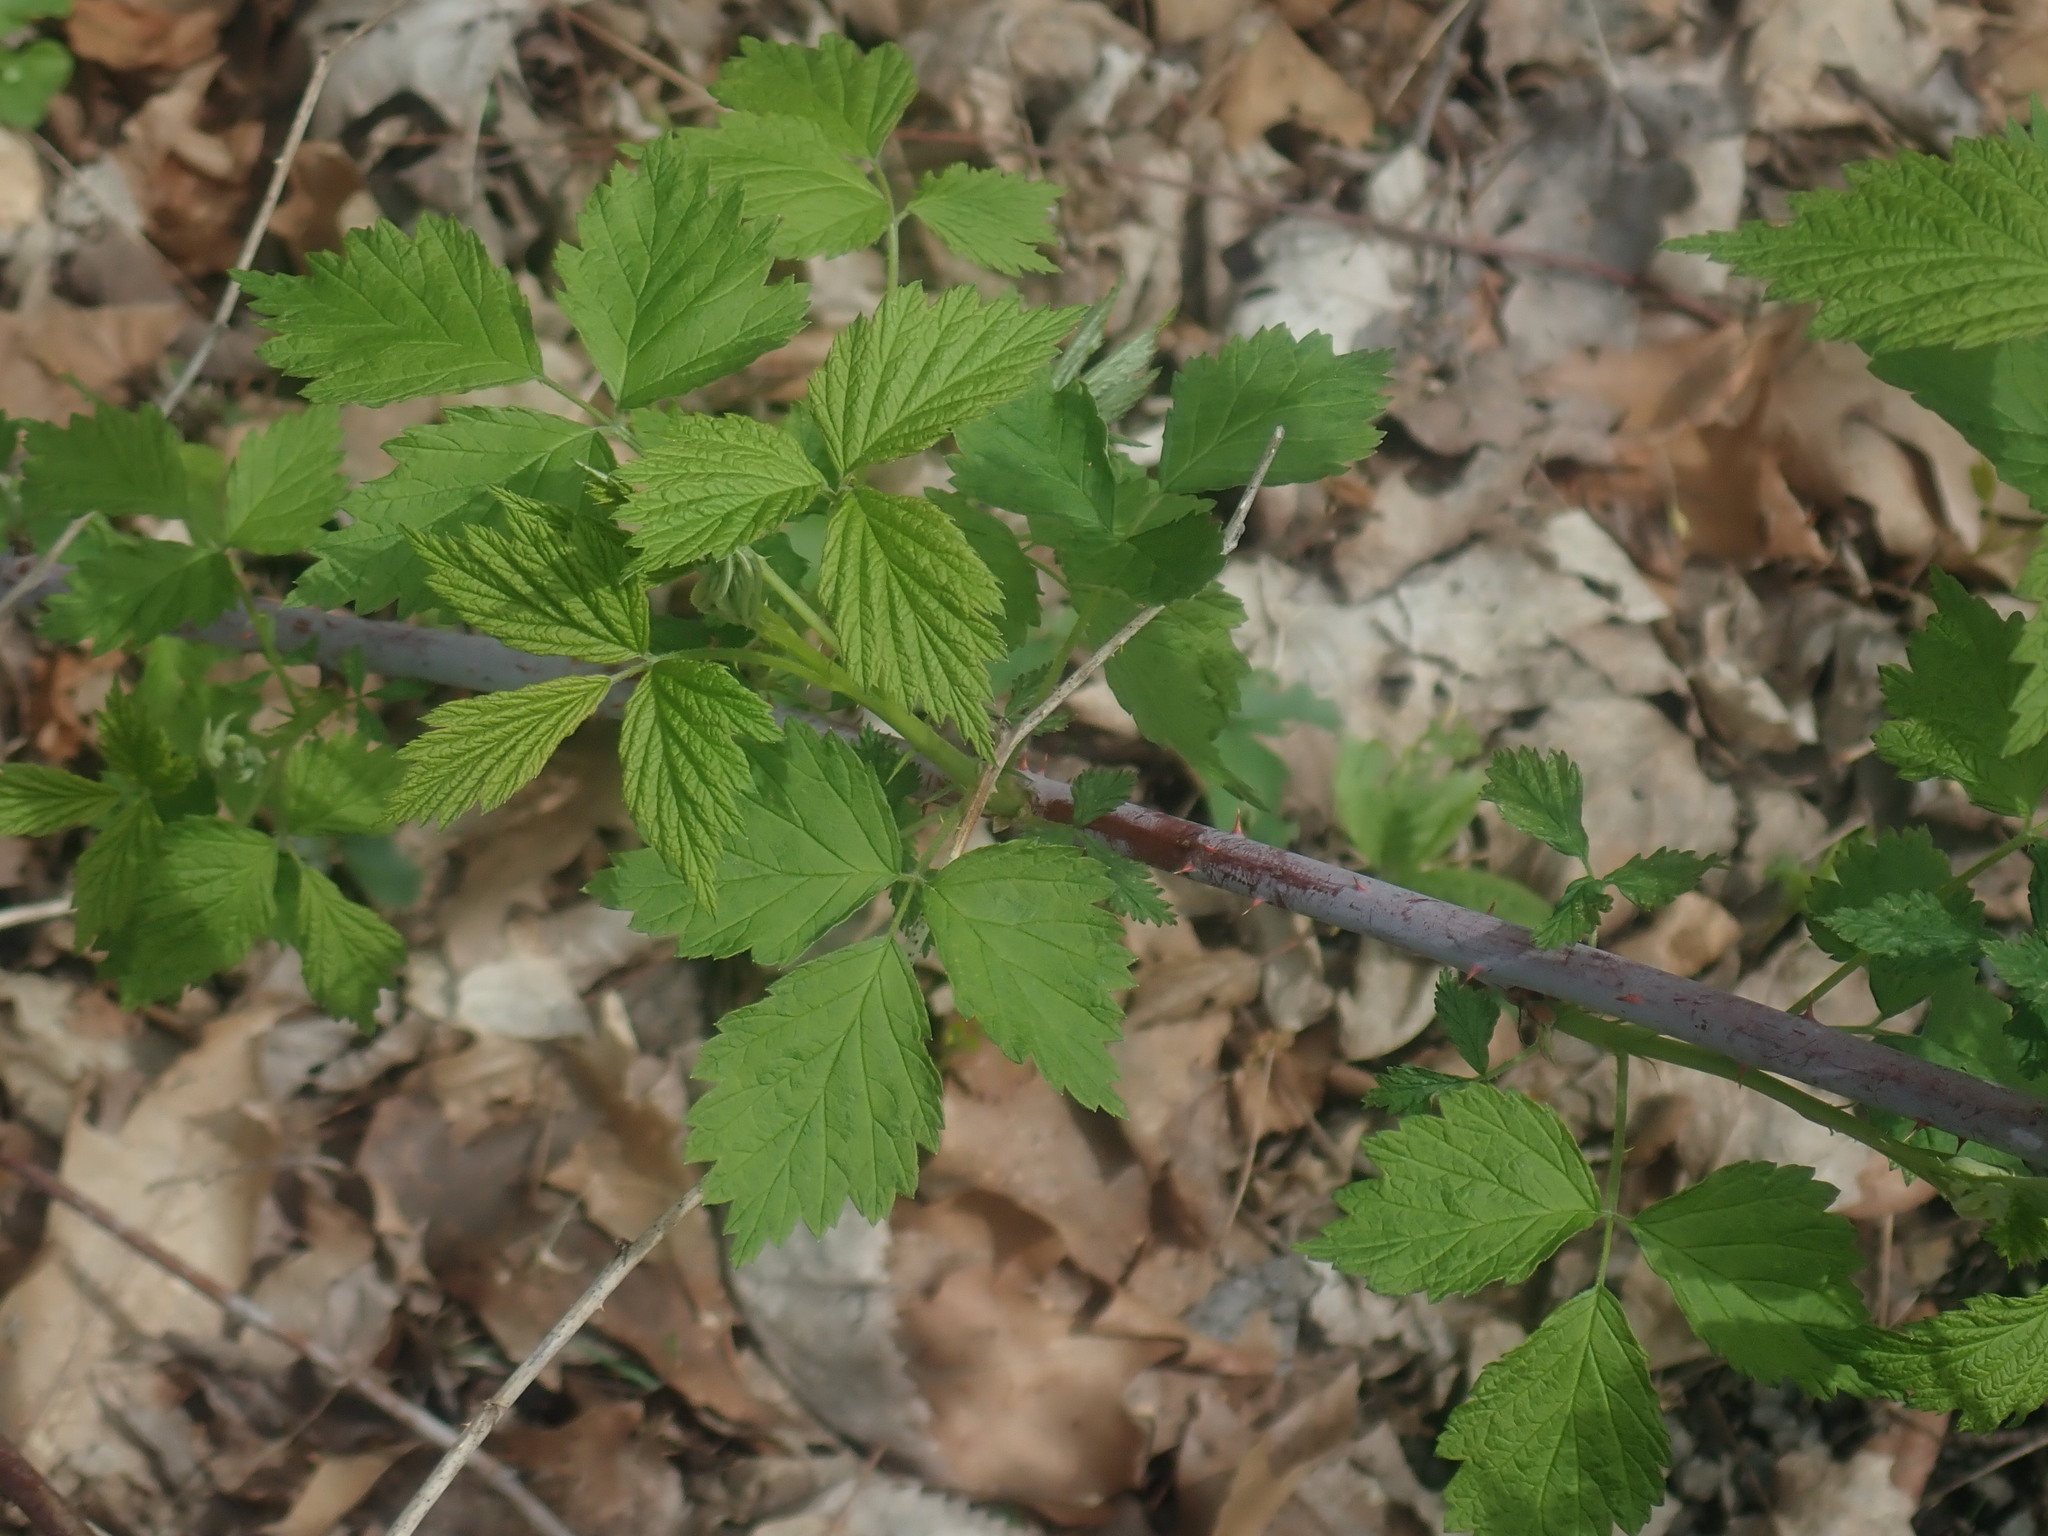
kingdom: Plantae
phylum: Tracheophyta
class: Magnoliopsida
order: Rosales
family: Rosaceae
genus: Rubus
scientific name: Rubus occidentalis
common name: Black raspberry
